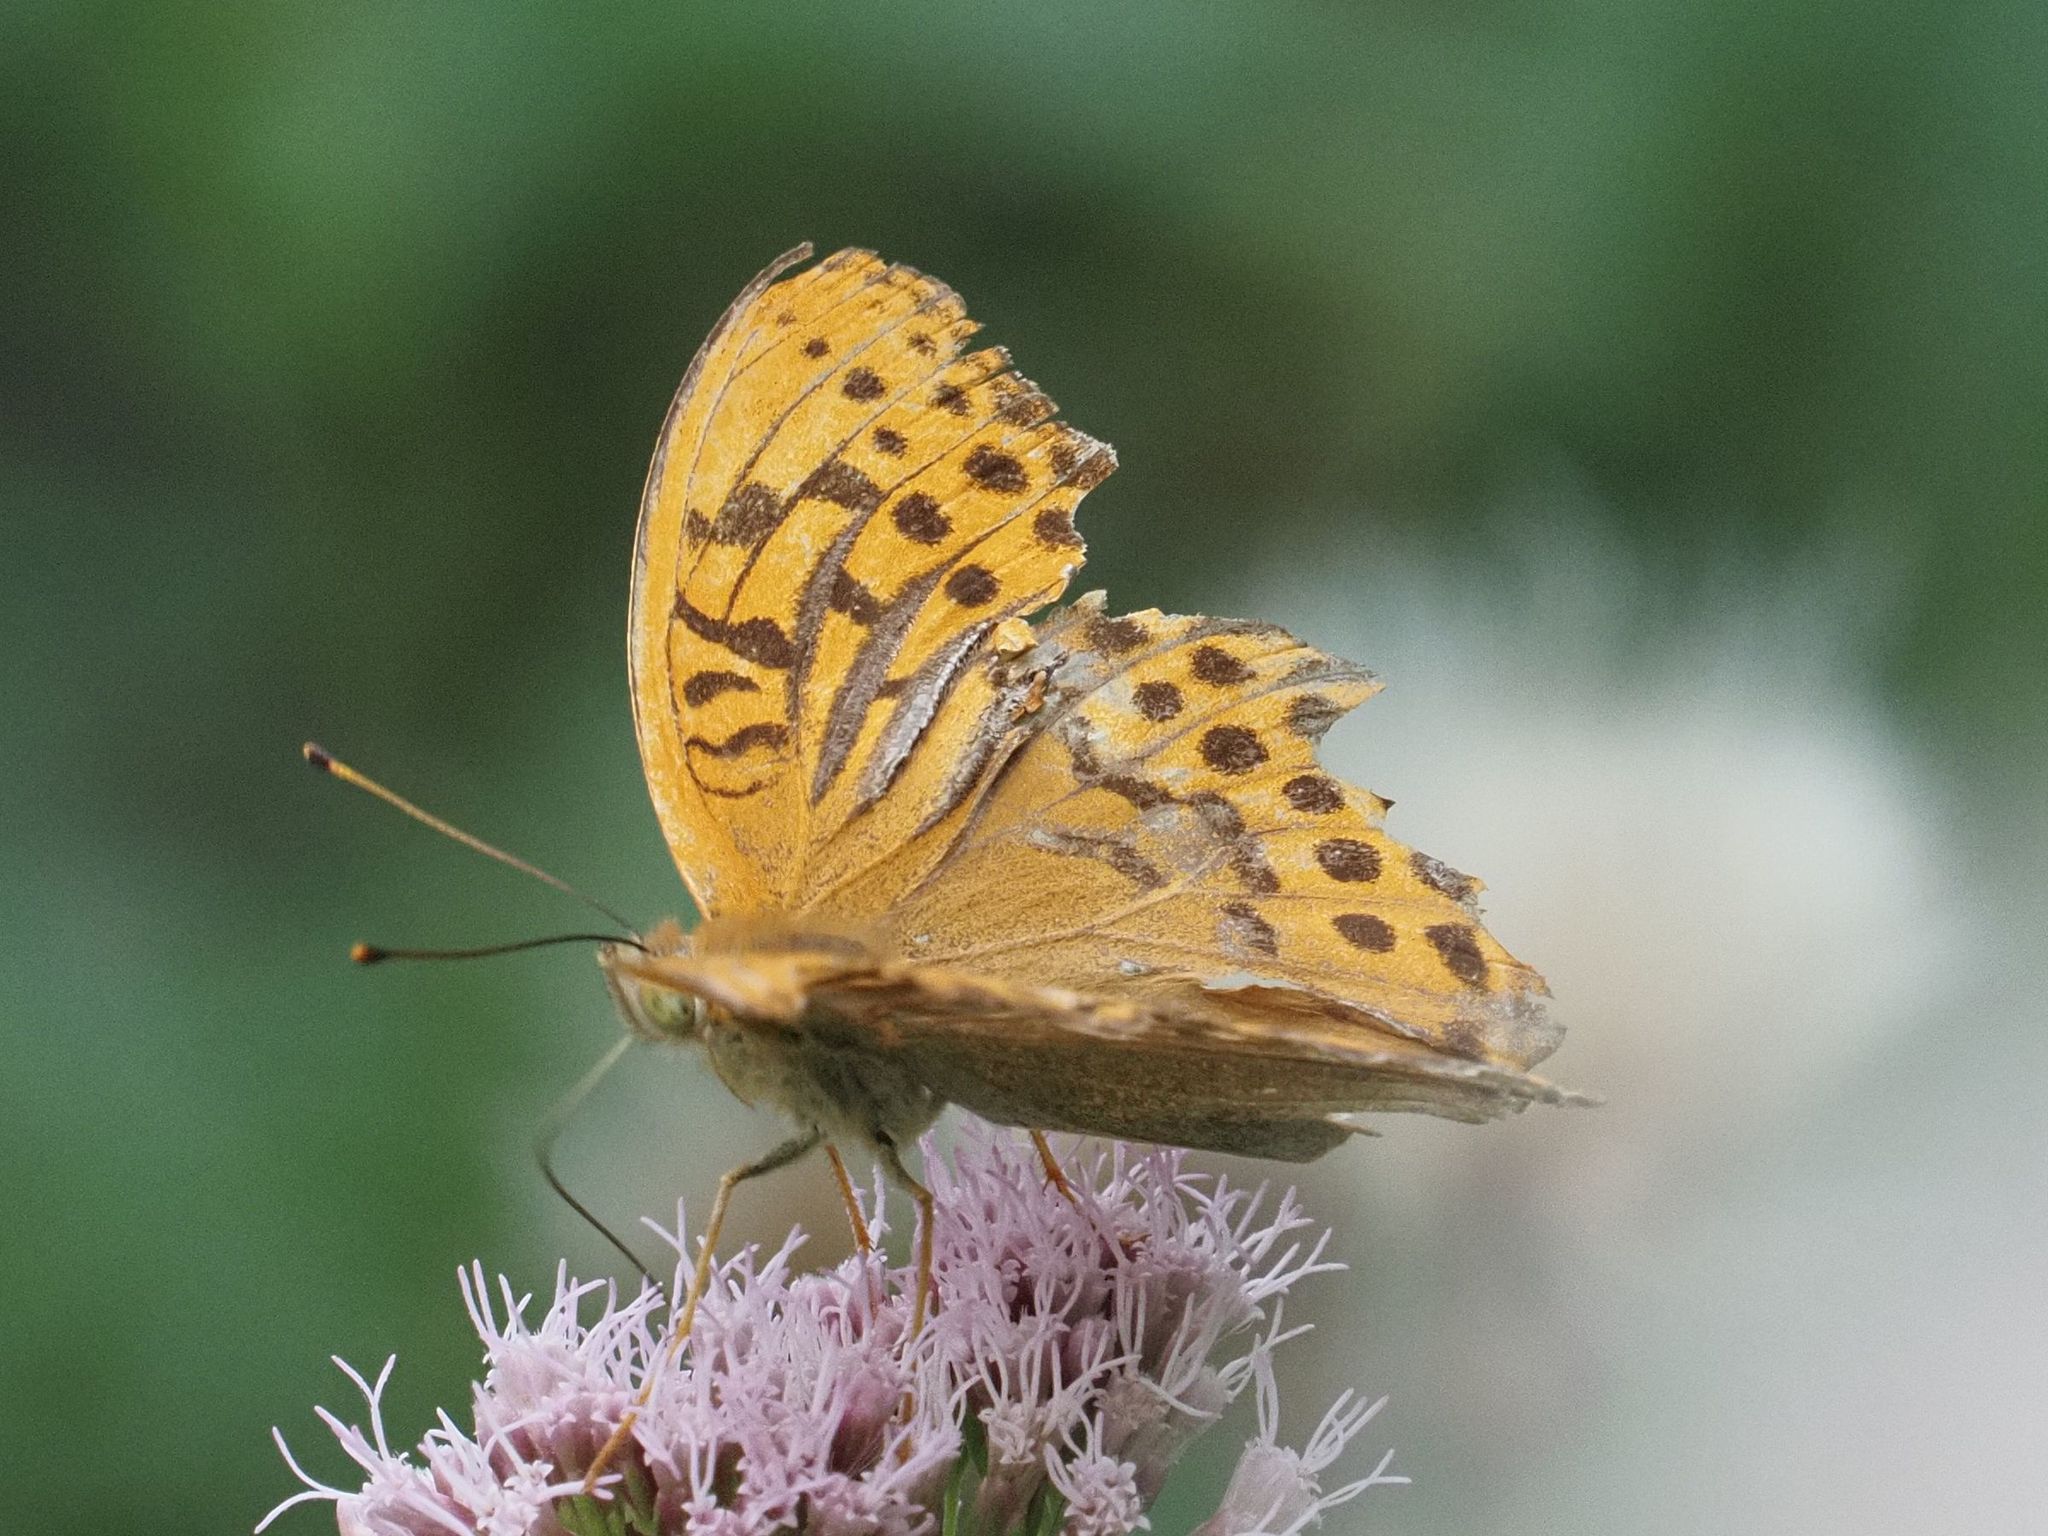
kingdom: Animalia
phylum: Arthropoda
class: Insecta
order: Lepidoptera
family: Nymphalidae
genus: Argynnis
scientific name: Argynnis paphia
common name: Silver-washed fritillary
